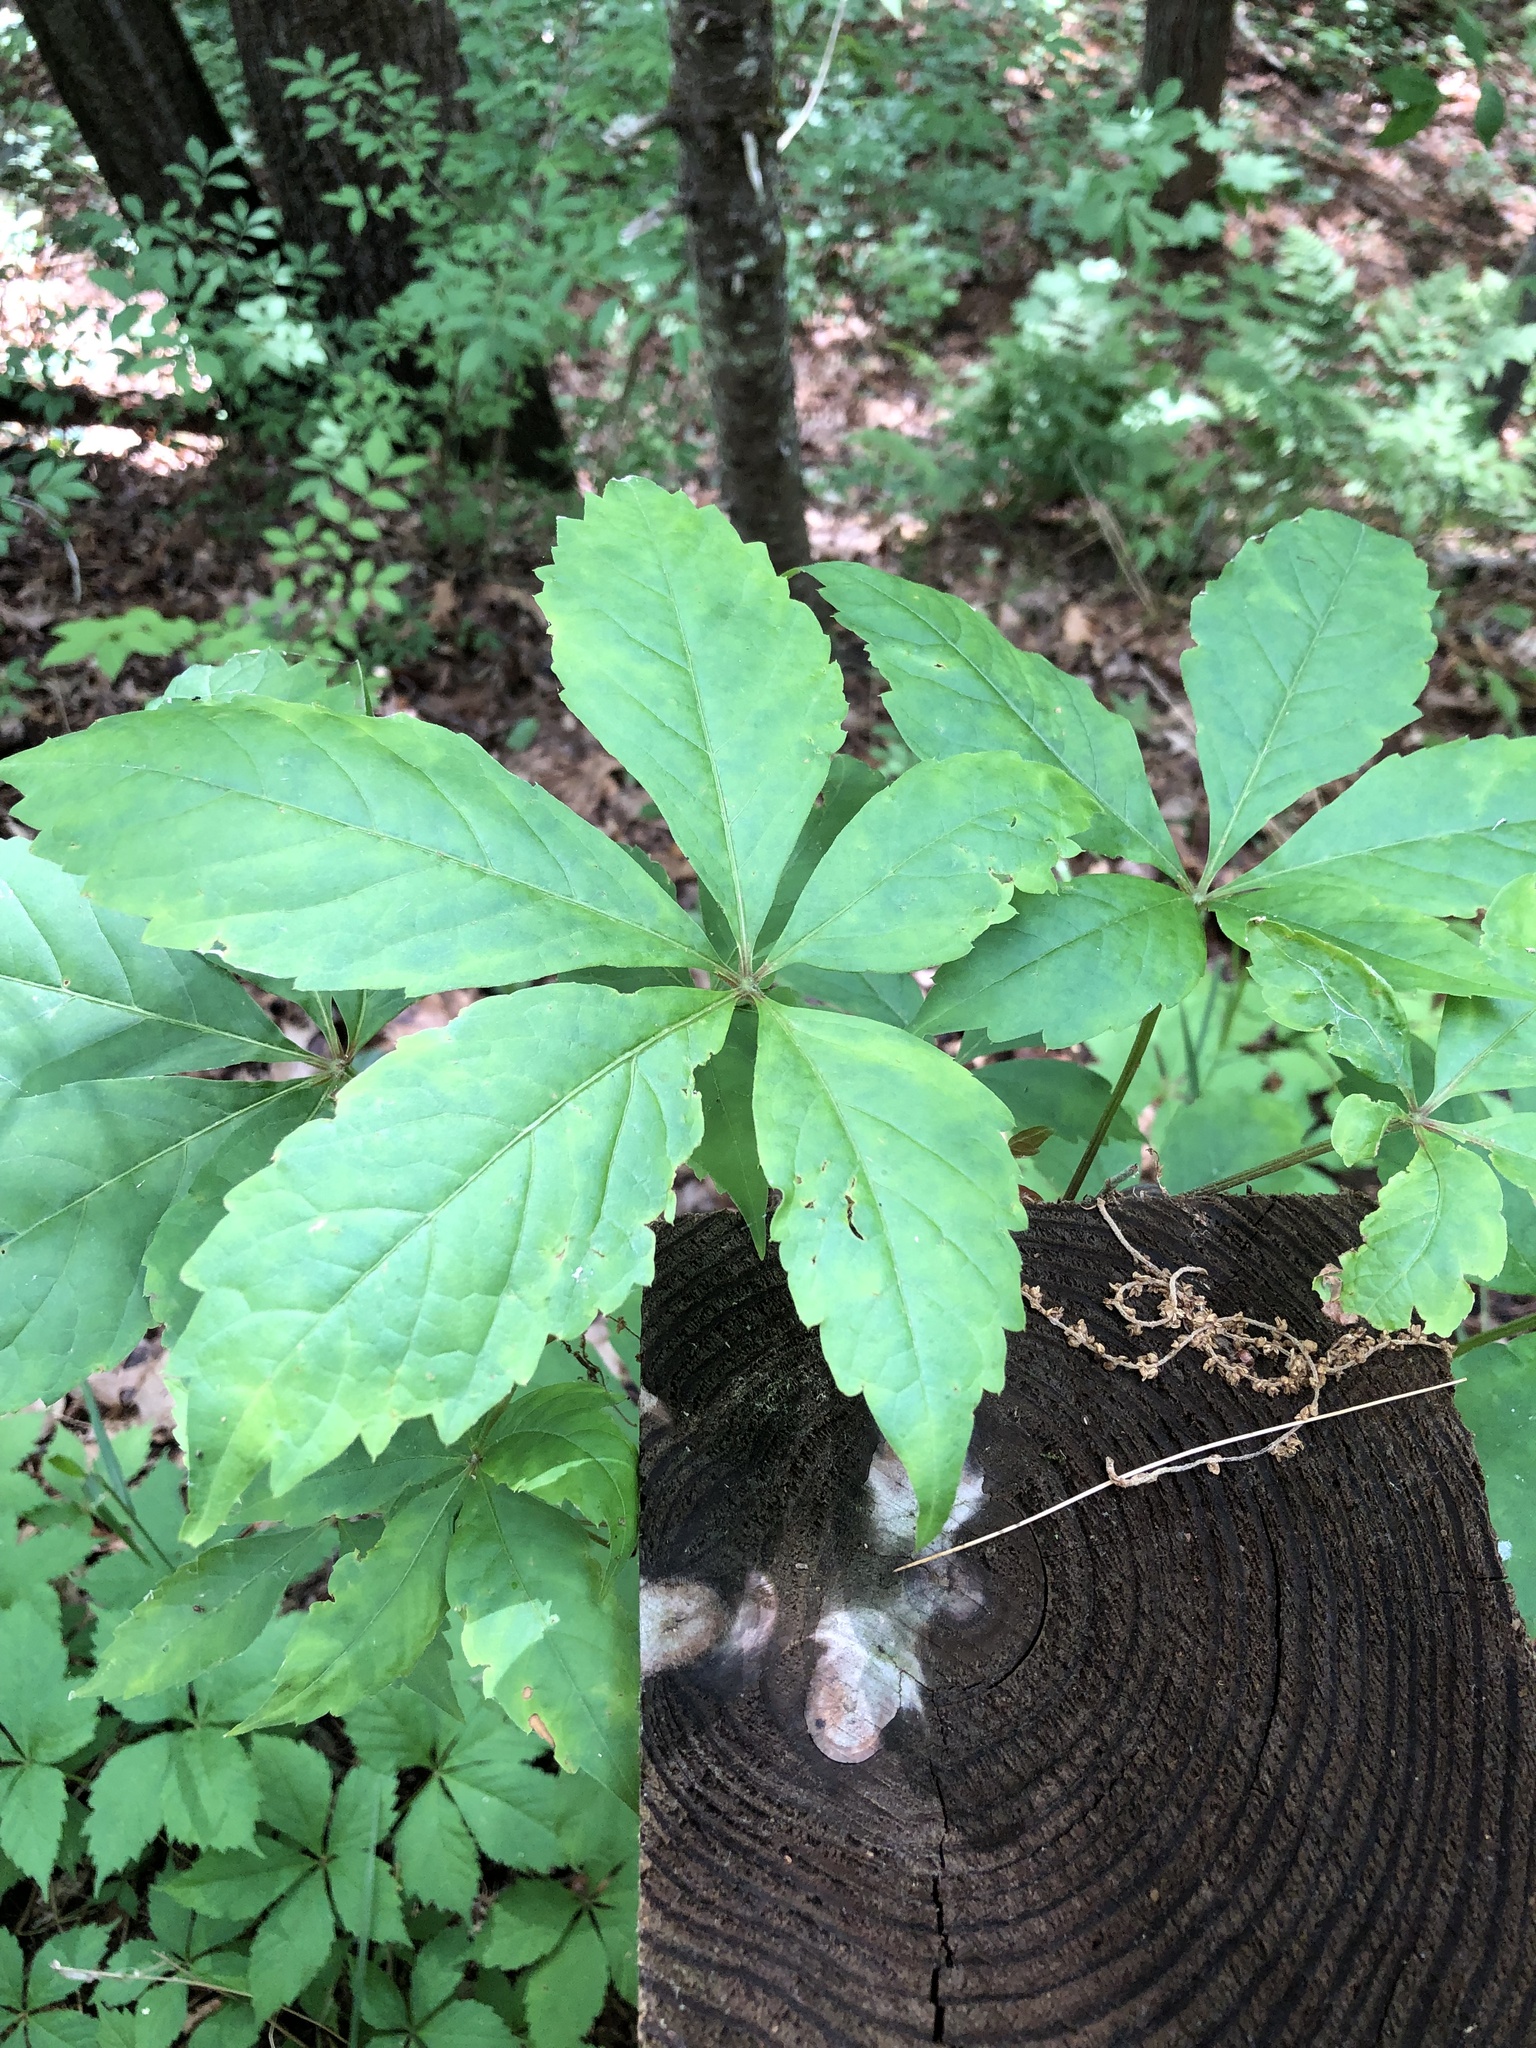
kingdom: Plantae
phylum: Tracheophyta
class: Magnoliopsida
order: Vitales
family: Vitaceae
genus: Parthenocissus
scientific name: Parthenocissus quinquefolia
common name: Virginia-creeper
